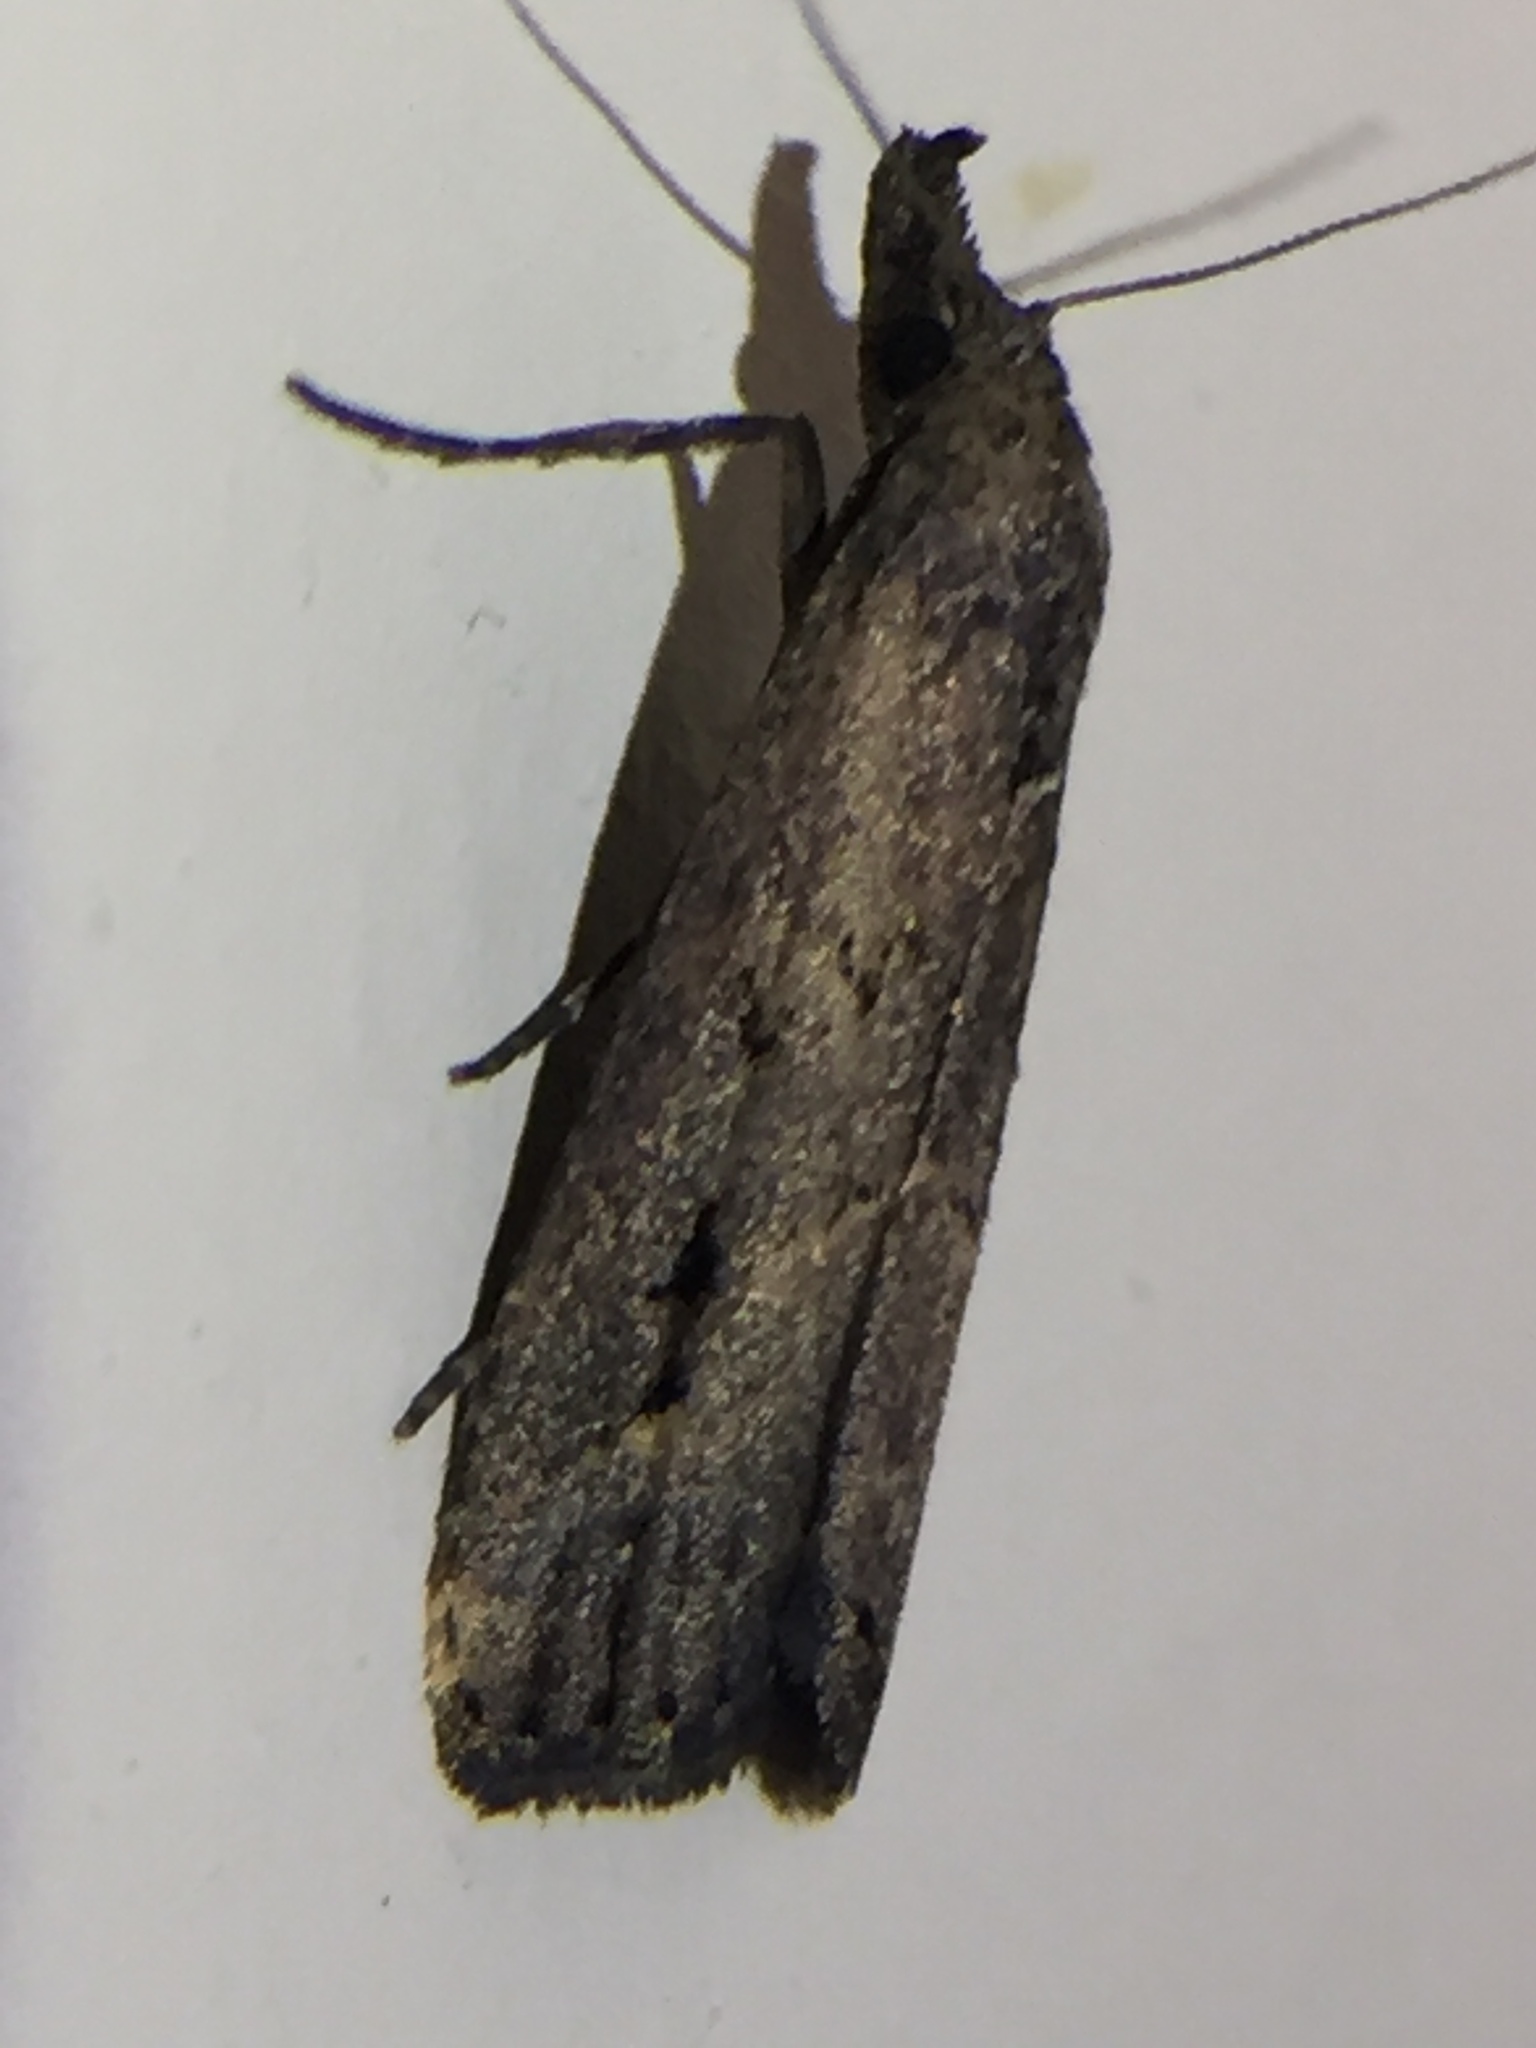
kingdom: Animalia
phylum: Arthropoda
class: Insecta
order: Lepidoptera
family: Erebidae
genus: Schrankia
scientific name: Schrankia costaestrigalis
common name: Pinion-streaked snout
